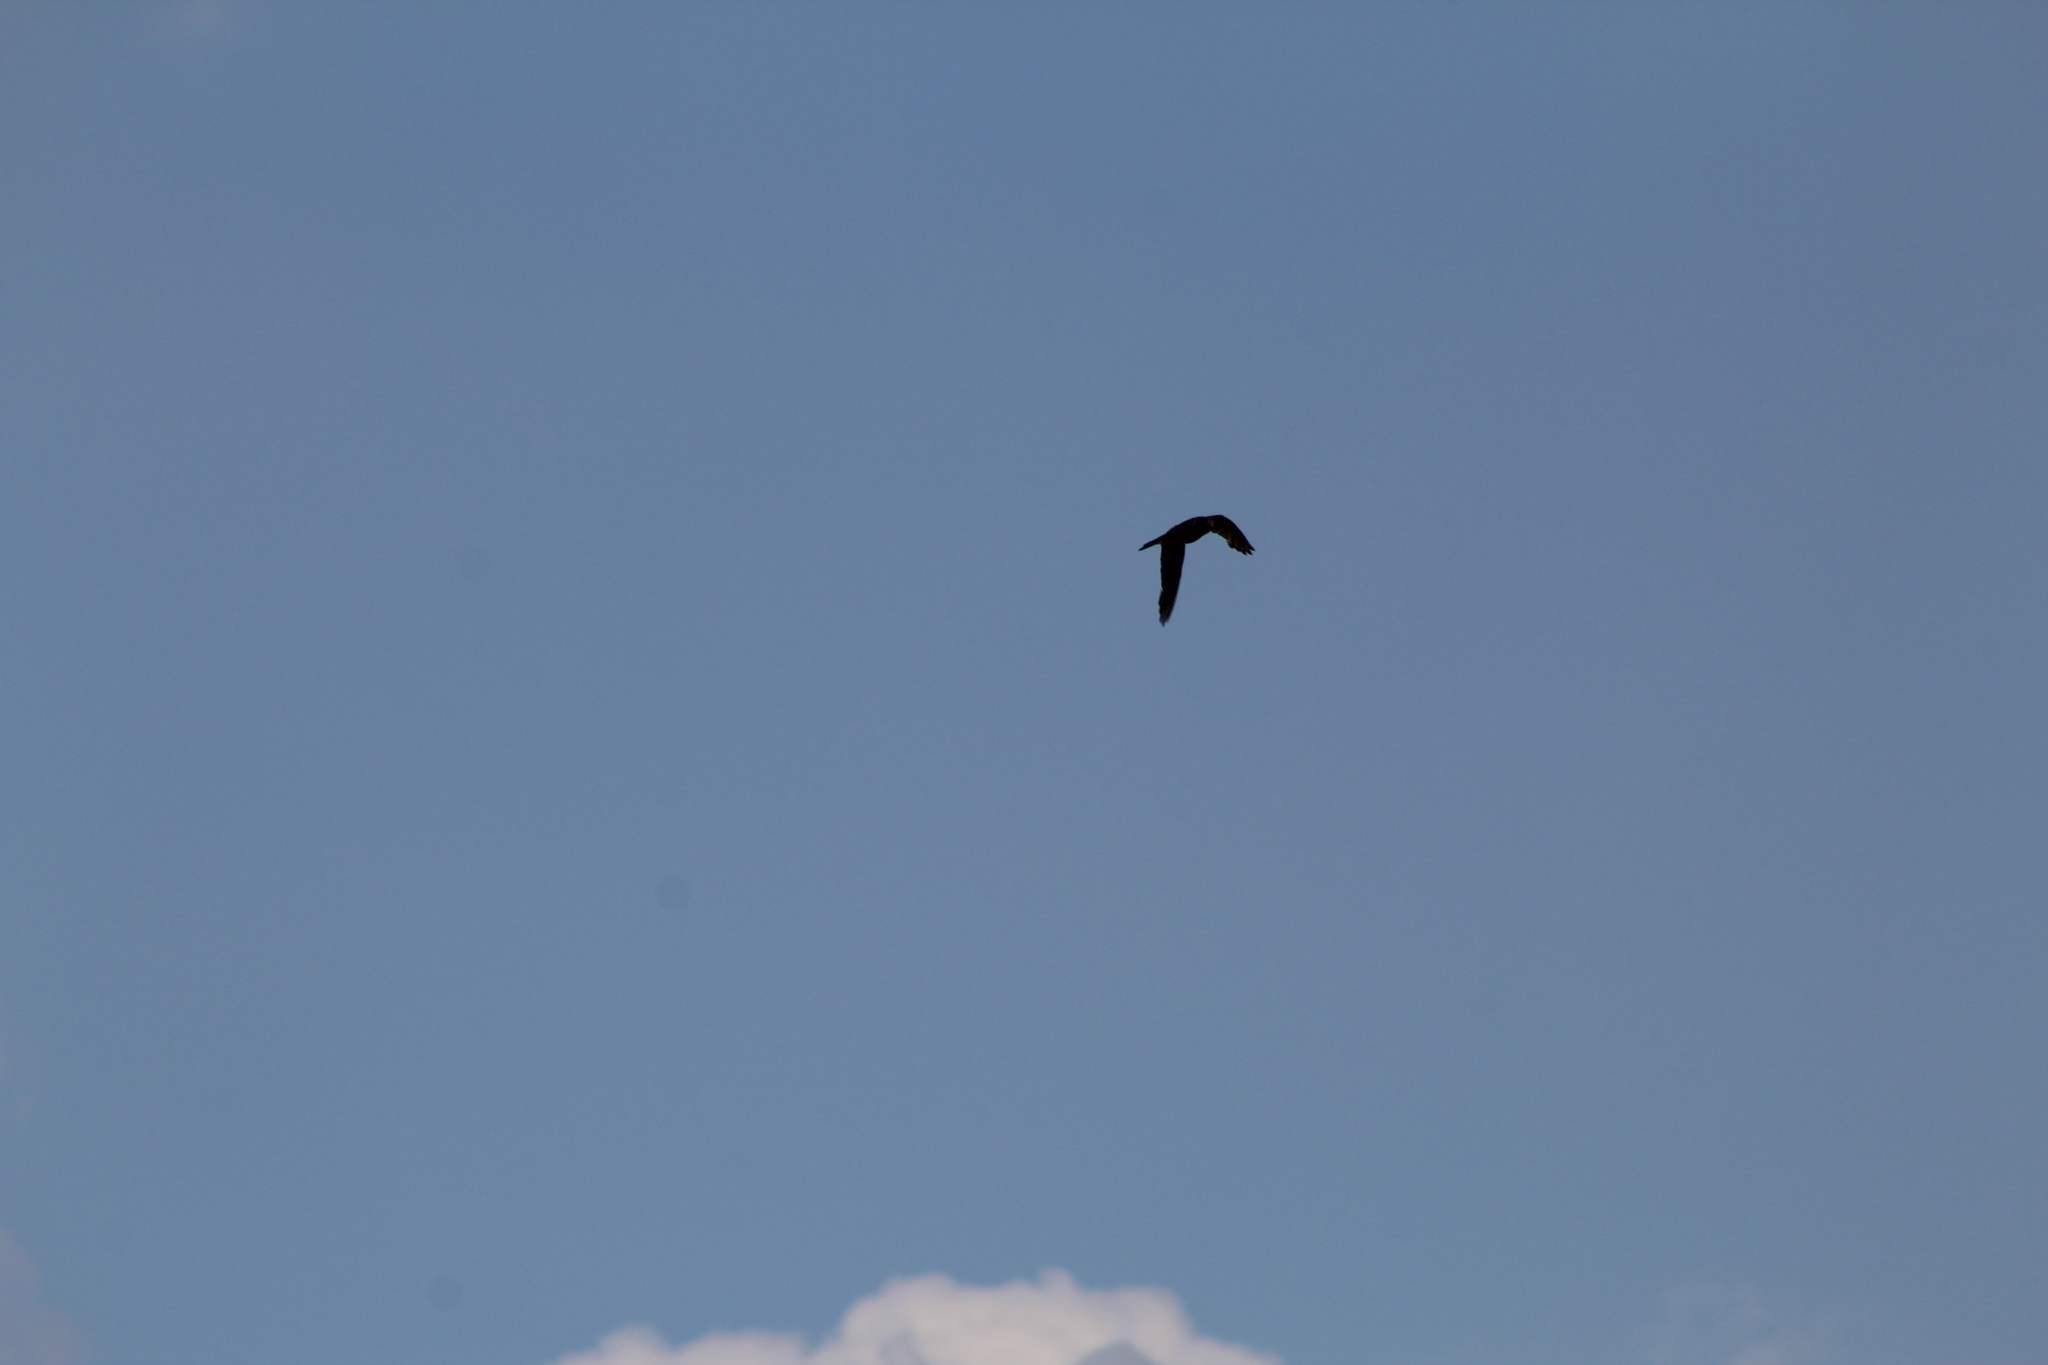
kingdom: Animalia
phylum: Chordata
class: Aves
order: Falconiformes
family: Falconidae
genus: Falco
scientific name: Falco sparverius
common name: American kestrel
